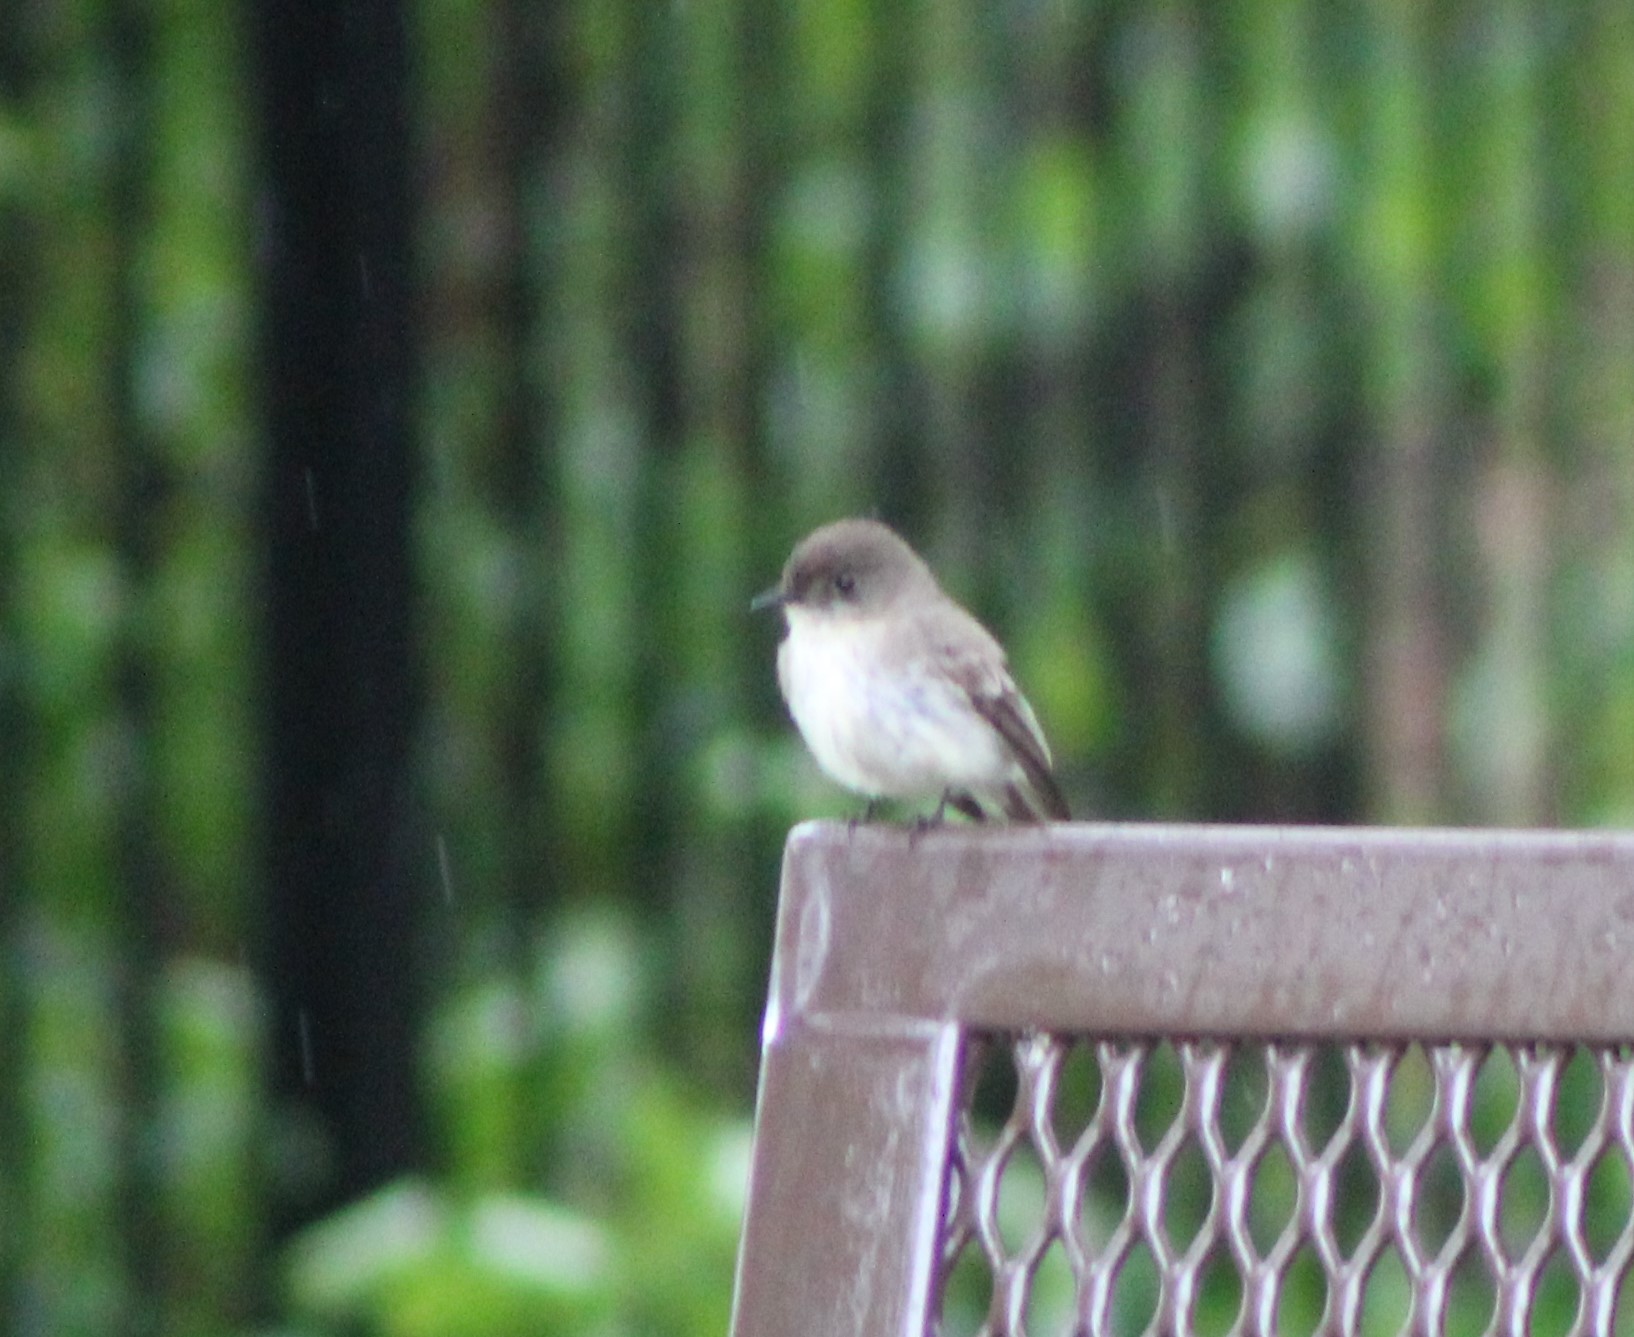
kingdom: Animalia
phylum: Chordata
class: Aves
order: Passeriformes
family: Tyrannidae
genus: Sayornis
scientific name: Sayornis phoebe
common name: Eastern phoebe
